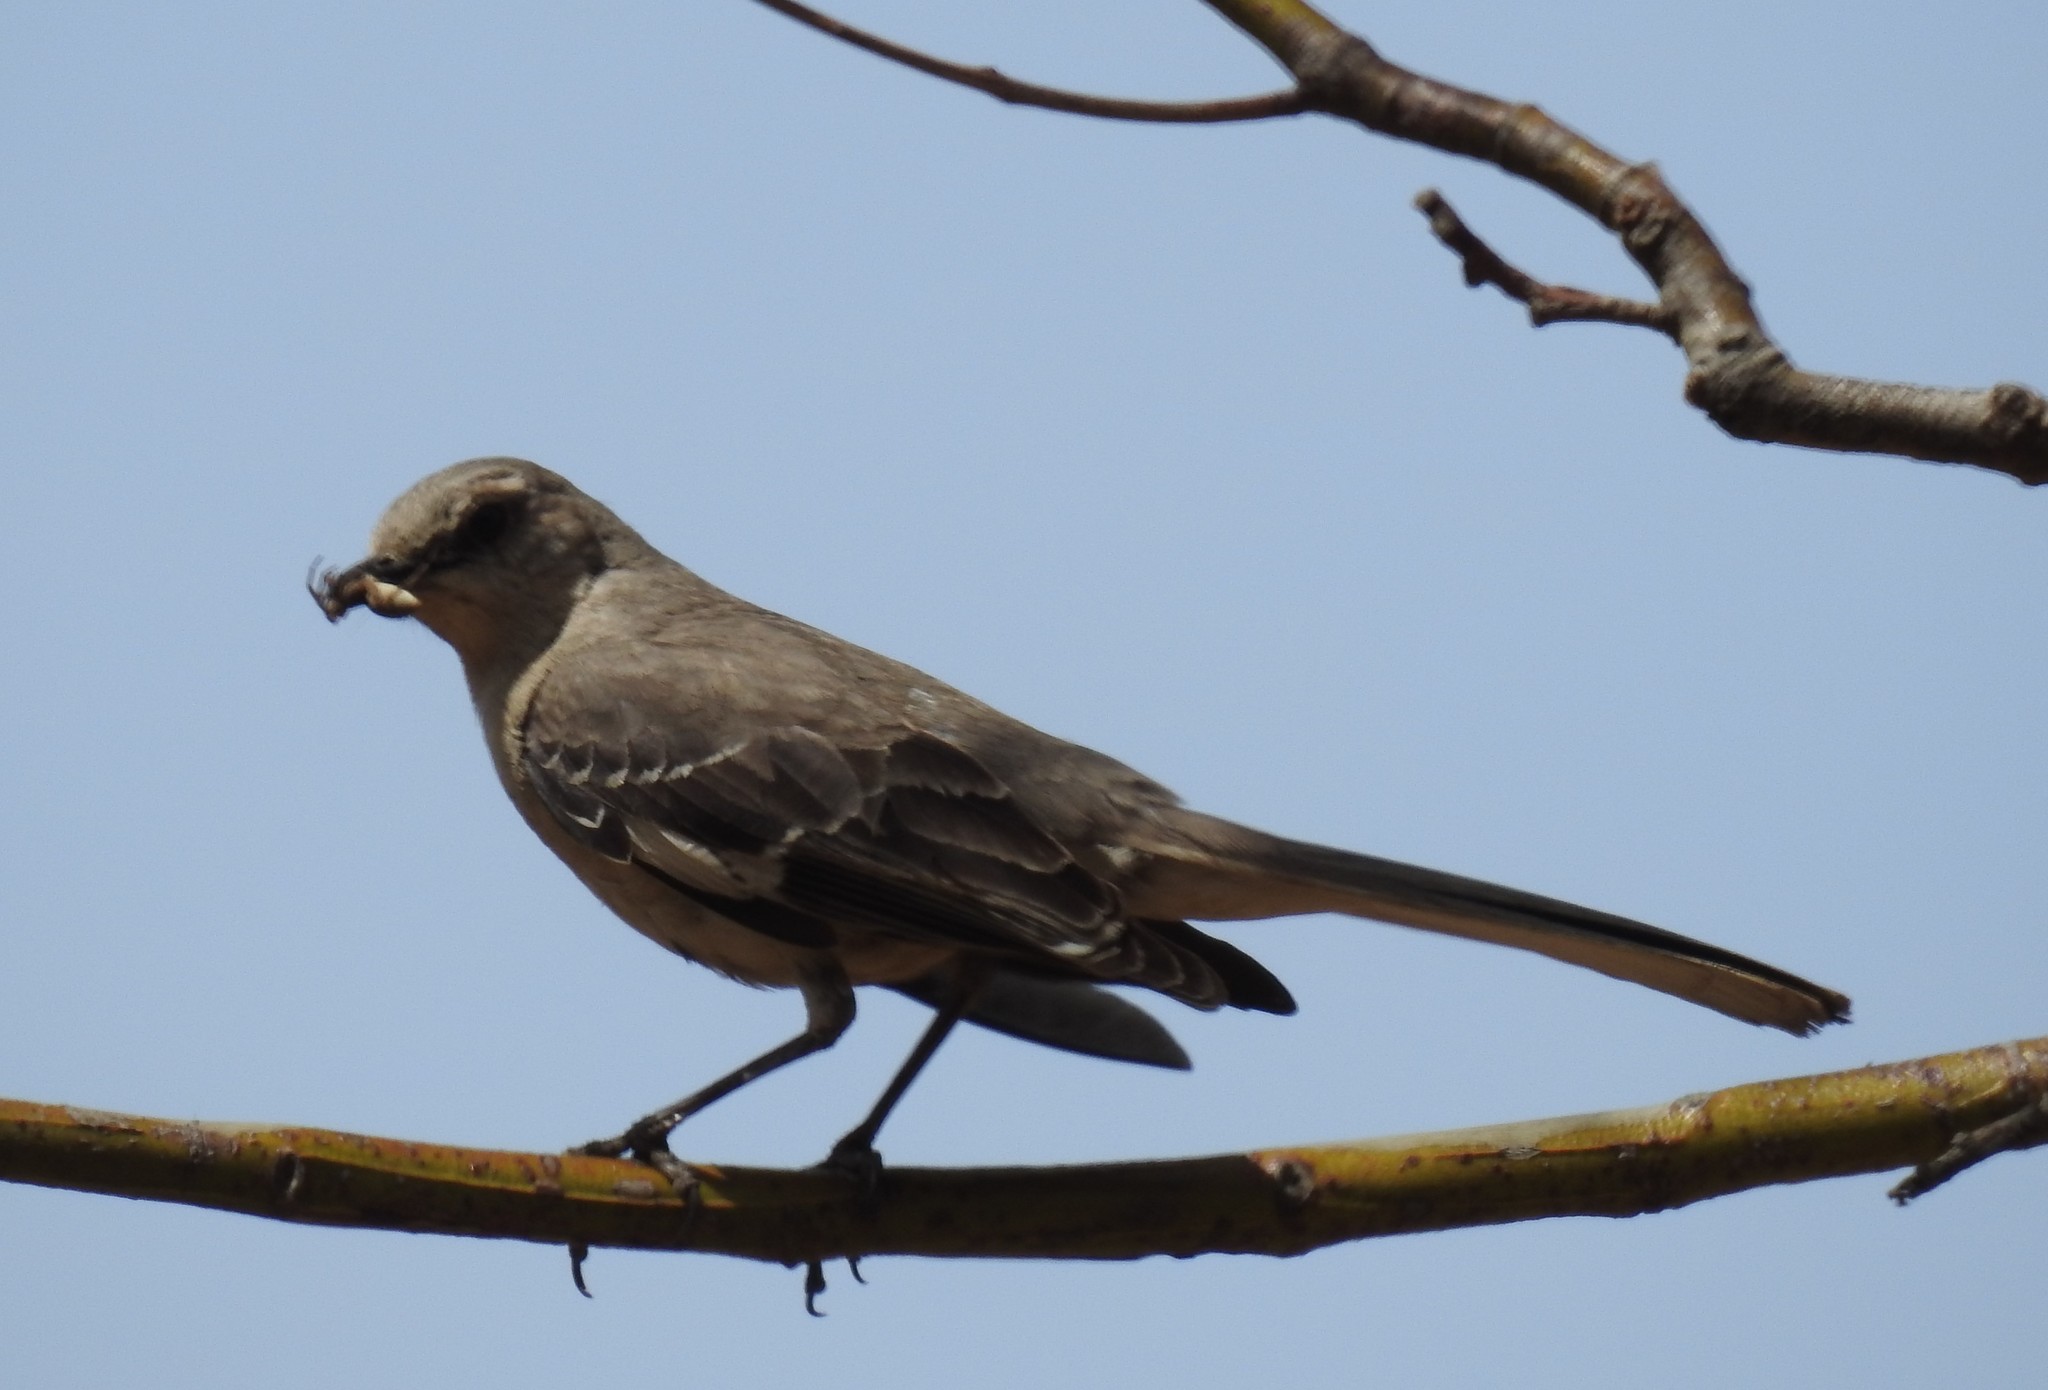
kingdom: Animalia
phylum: Chordata
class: Aves
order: Passeriformes
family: Mimidae
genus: Mimus
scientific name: Mimus polyglottos
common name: Northern mockingbird
